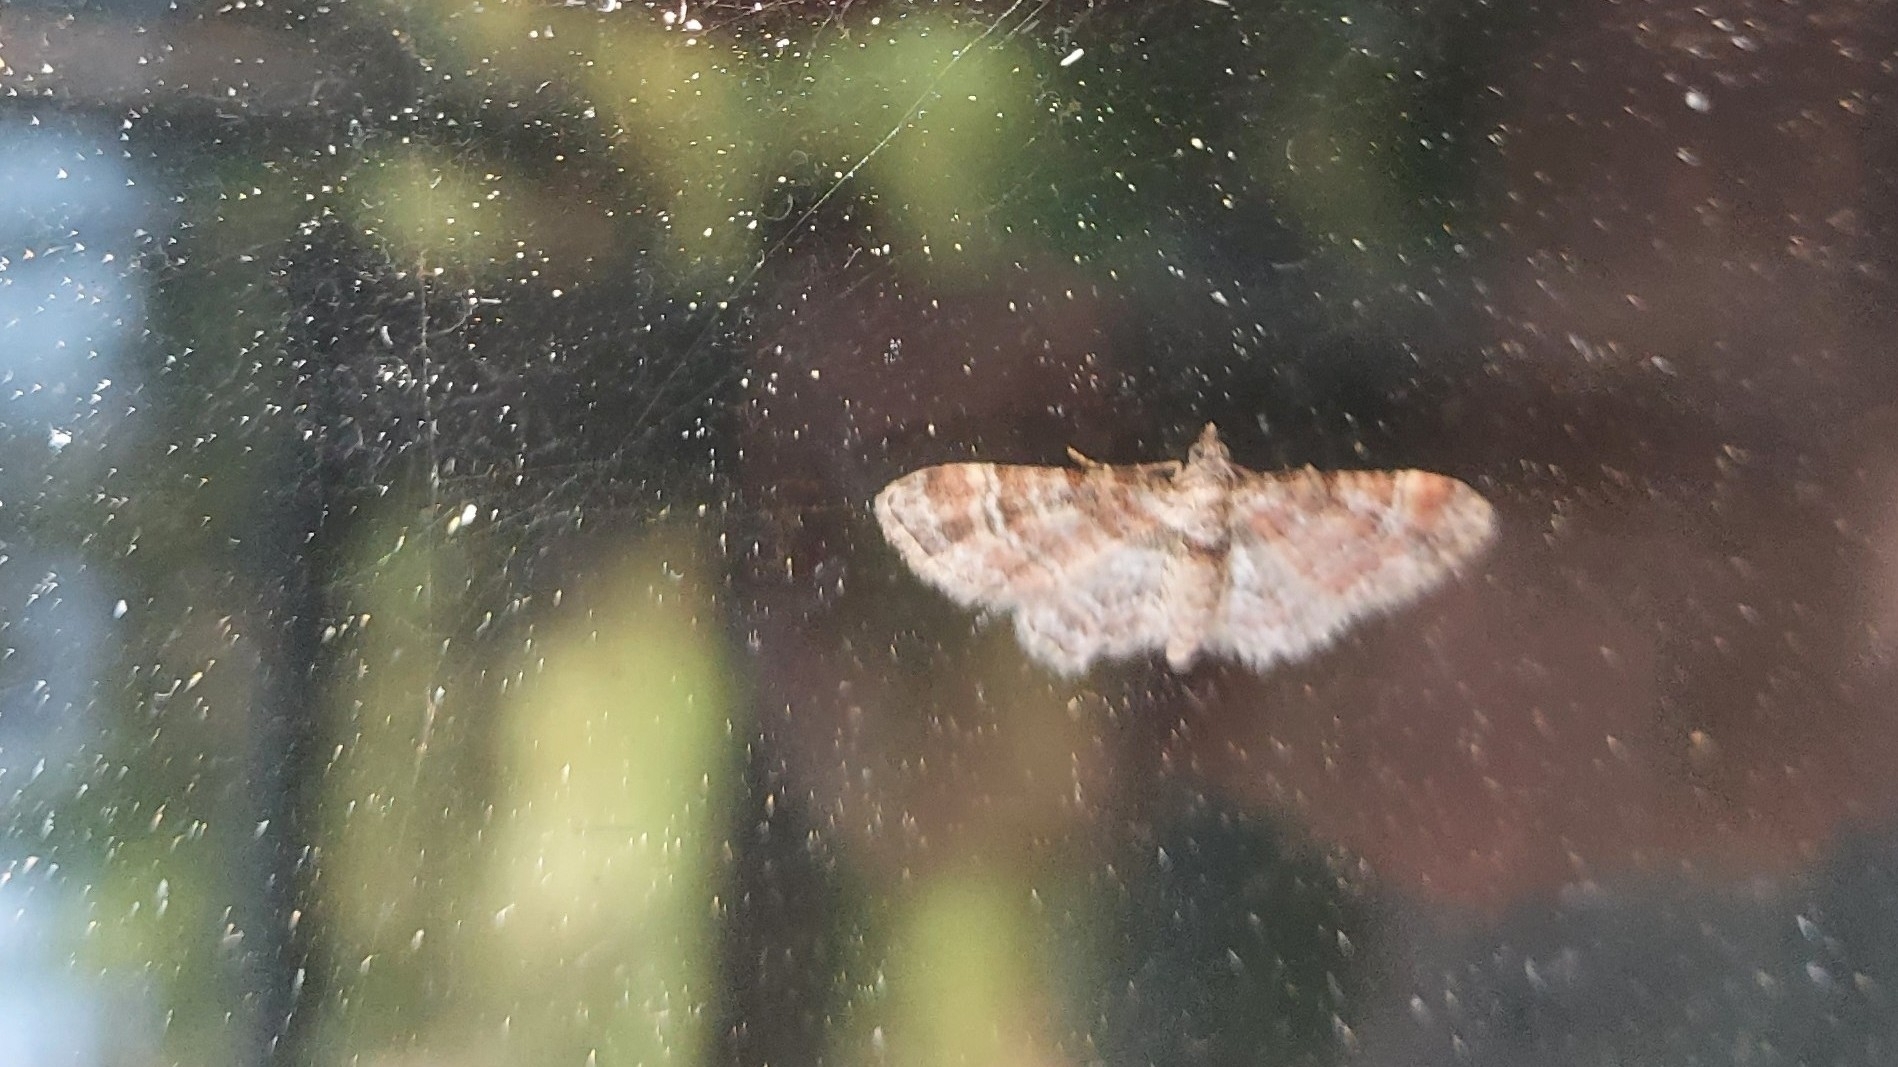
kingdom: Animalia
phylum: Arthropoda
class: Insecta
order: Lepidoptera
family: Geometridae
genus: Gymnoscelis
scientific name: Gymnoscelis rufifasciata
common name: Double-striped pug
